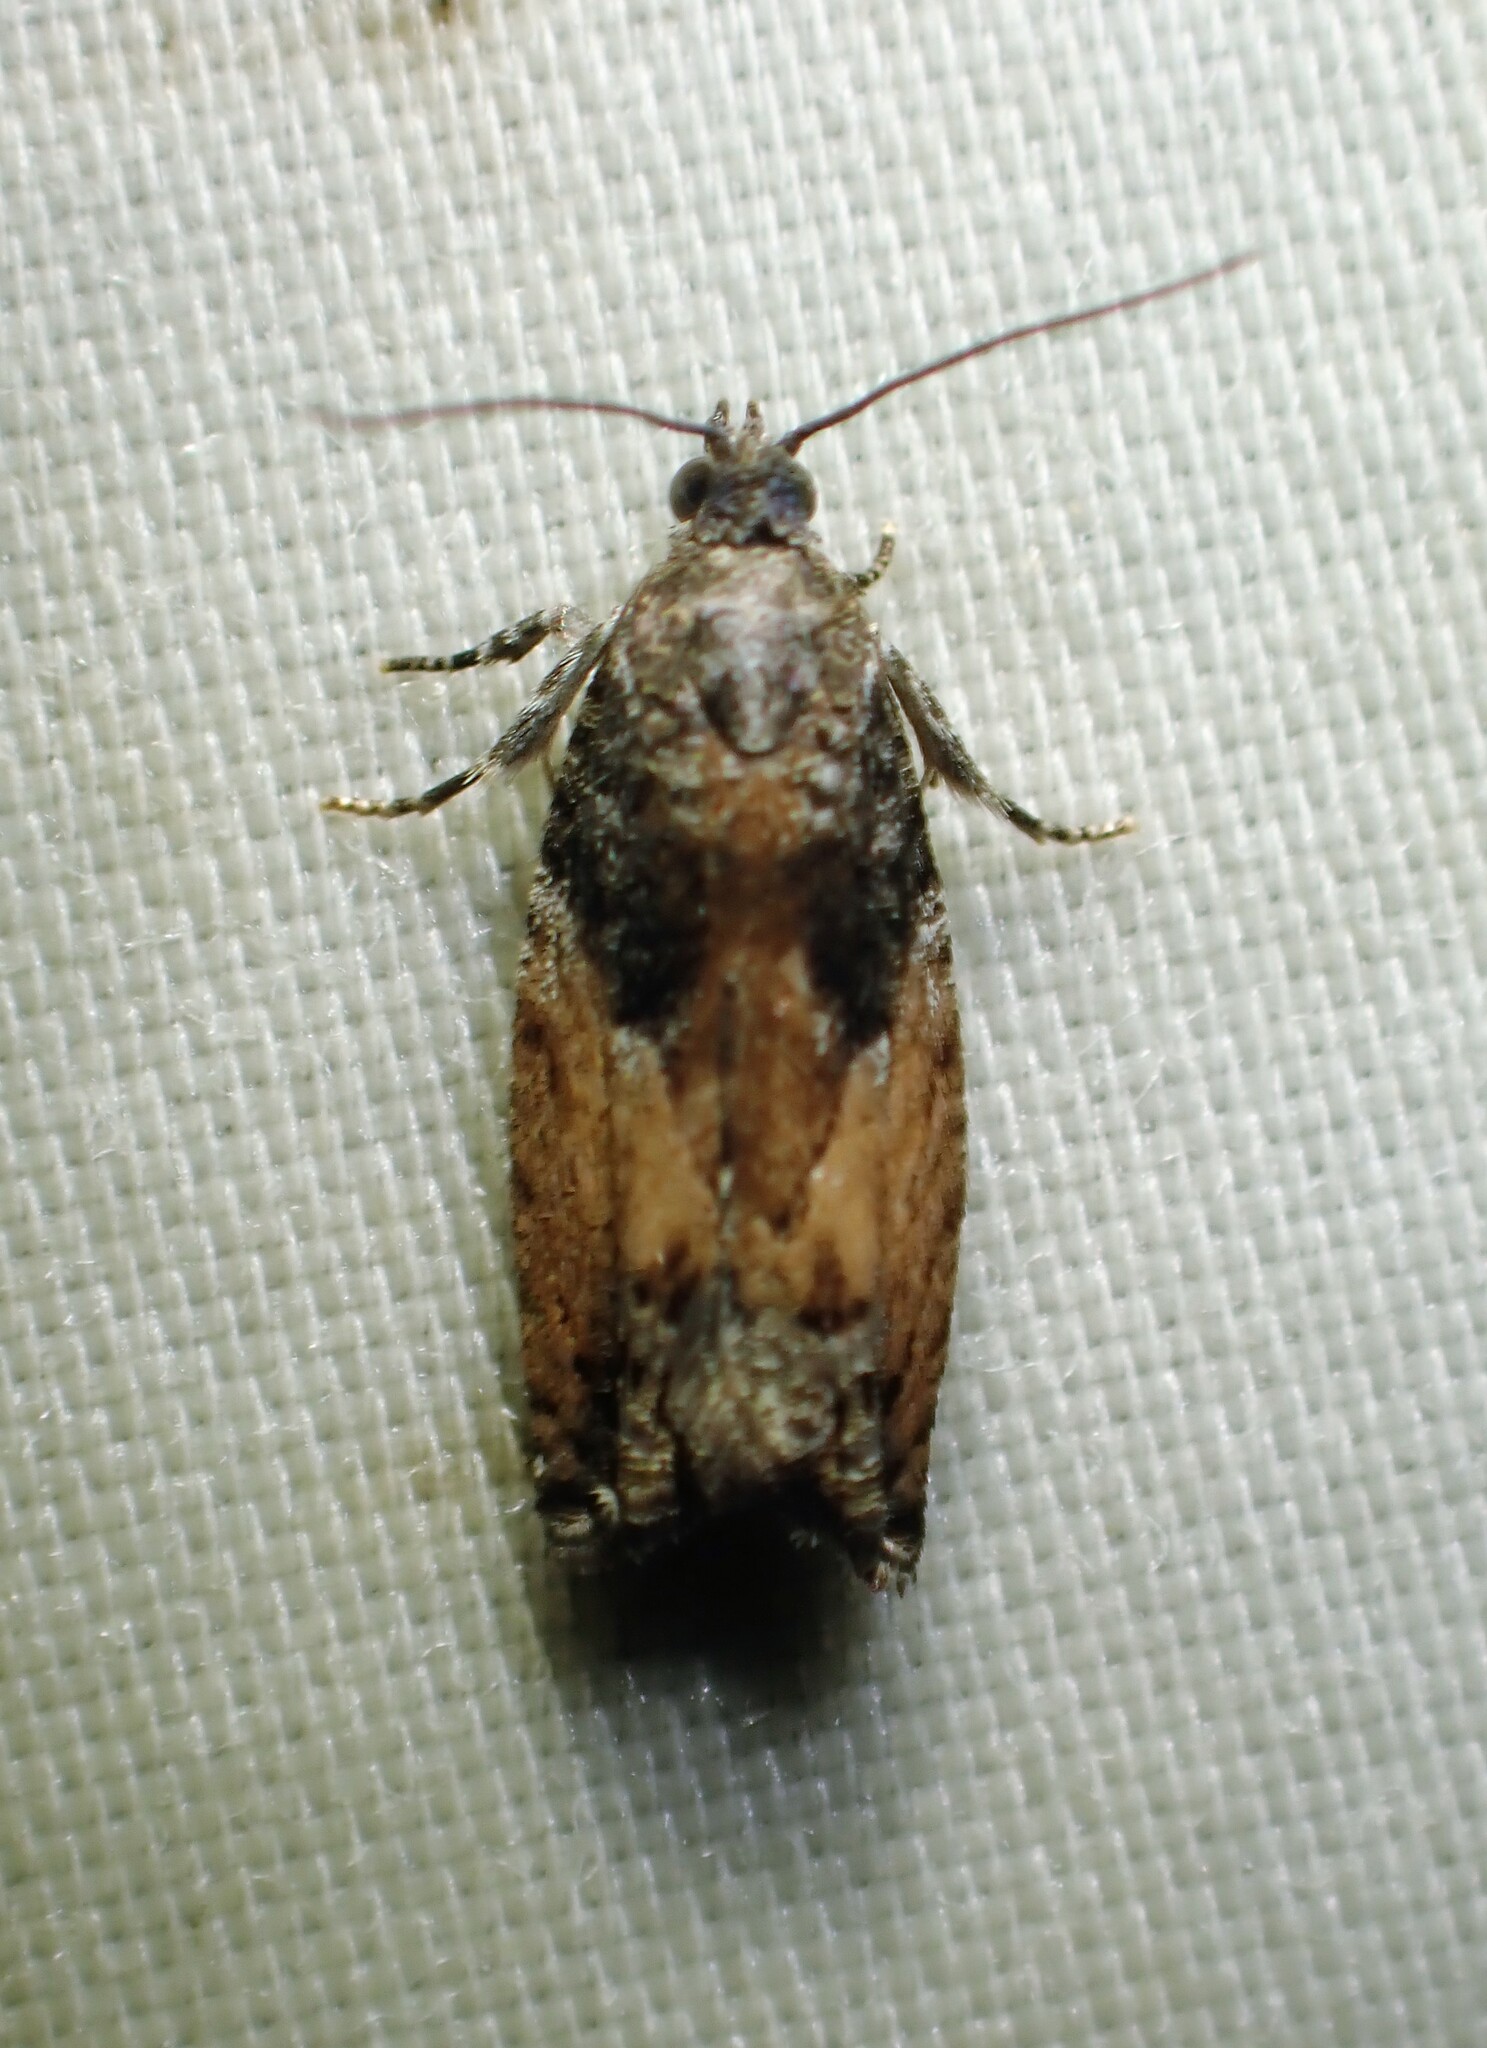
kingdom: Animalia
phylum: Arthropoda
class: Insecta
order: Lepidoptera
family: Tortricidae
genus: Epinotia
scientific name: Epinotia nisella
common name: Grey poplar bell
